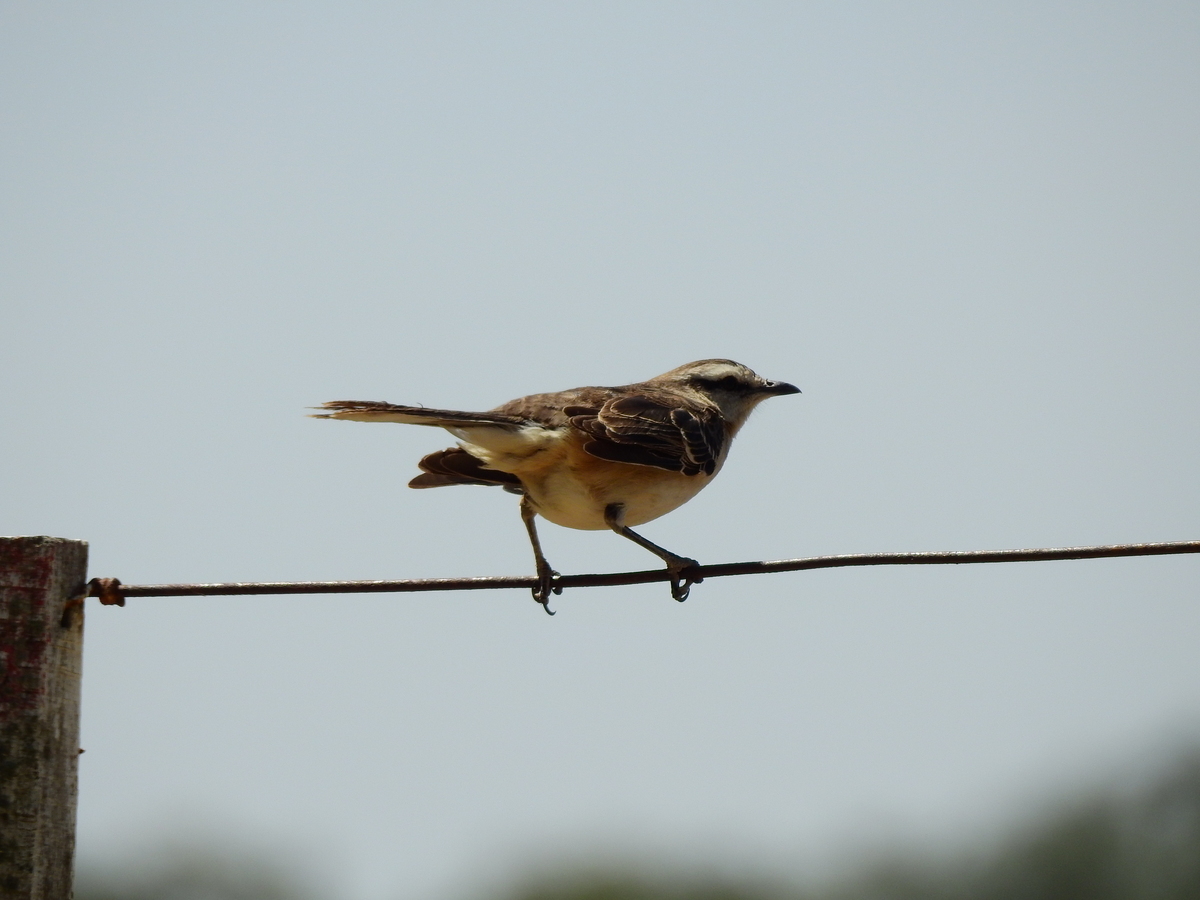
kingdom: Animalia
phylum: Chordata
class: Aves
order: Passeriformes
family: Mimidae
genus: Mimus
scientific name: Mimus saturninus
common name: Chalk-browed mockingbird
